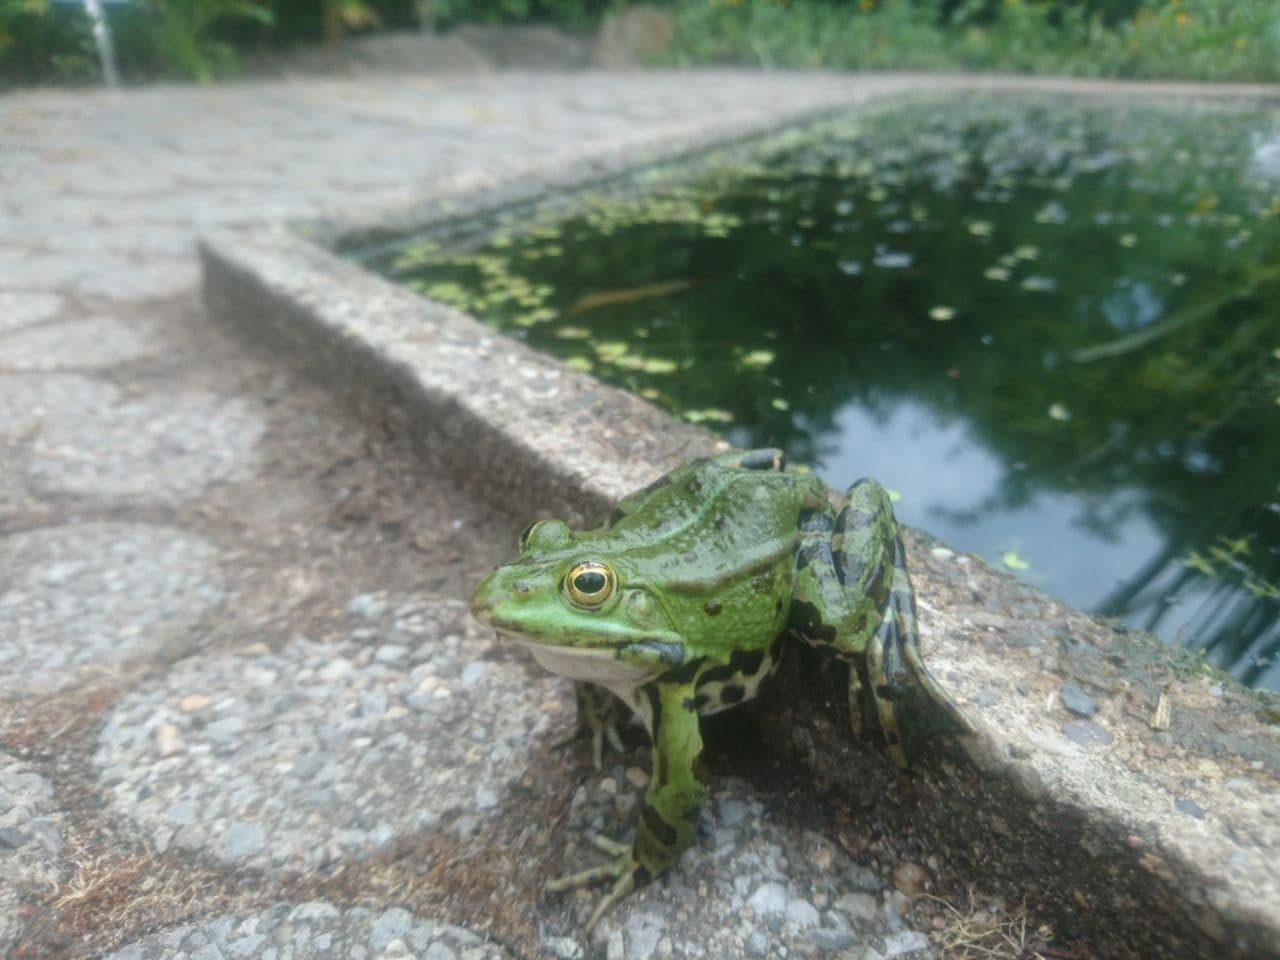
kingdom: Animalia
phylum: Chordata
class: Amphibia
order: Anura
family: Ranidae
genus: Pelophylax
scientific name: Pelophylax lessonae
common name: Pool frog
